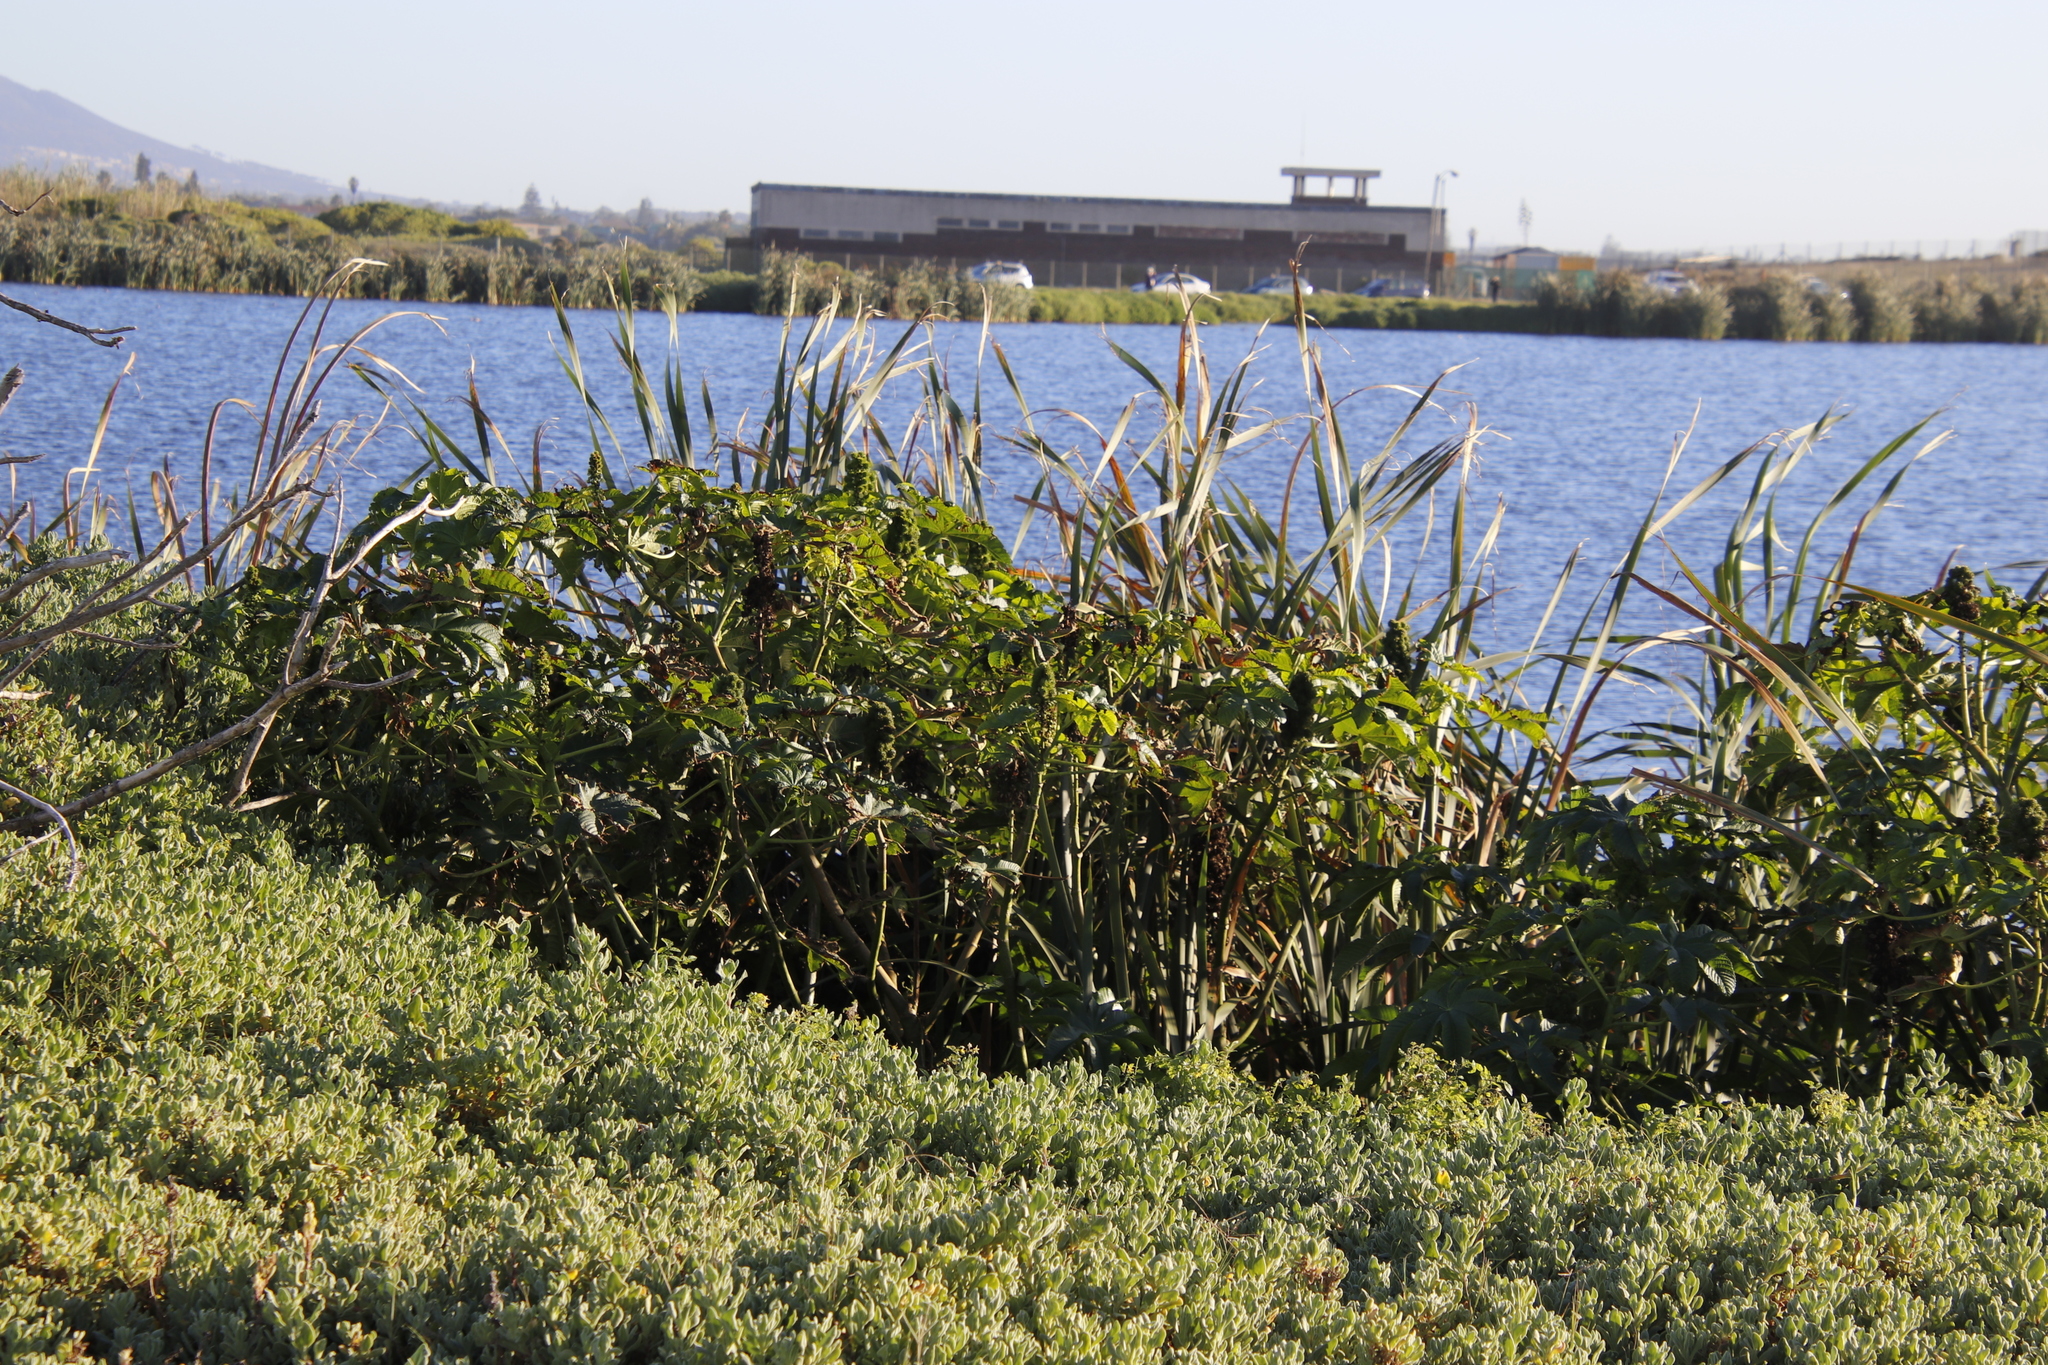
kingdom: Plantae
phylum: Tracheophyta
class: Magnoliopsida
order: Malpighiales
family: Euphorbiaceae
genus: Ricinus
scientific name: Ricinus communis
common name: Castor-oil-plant
